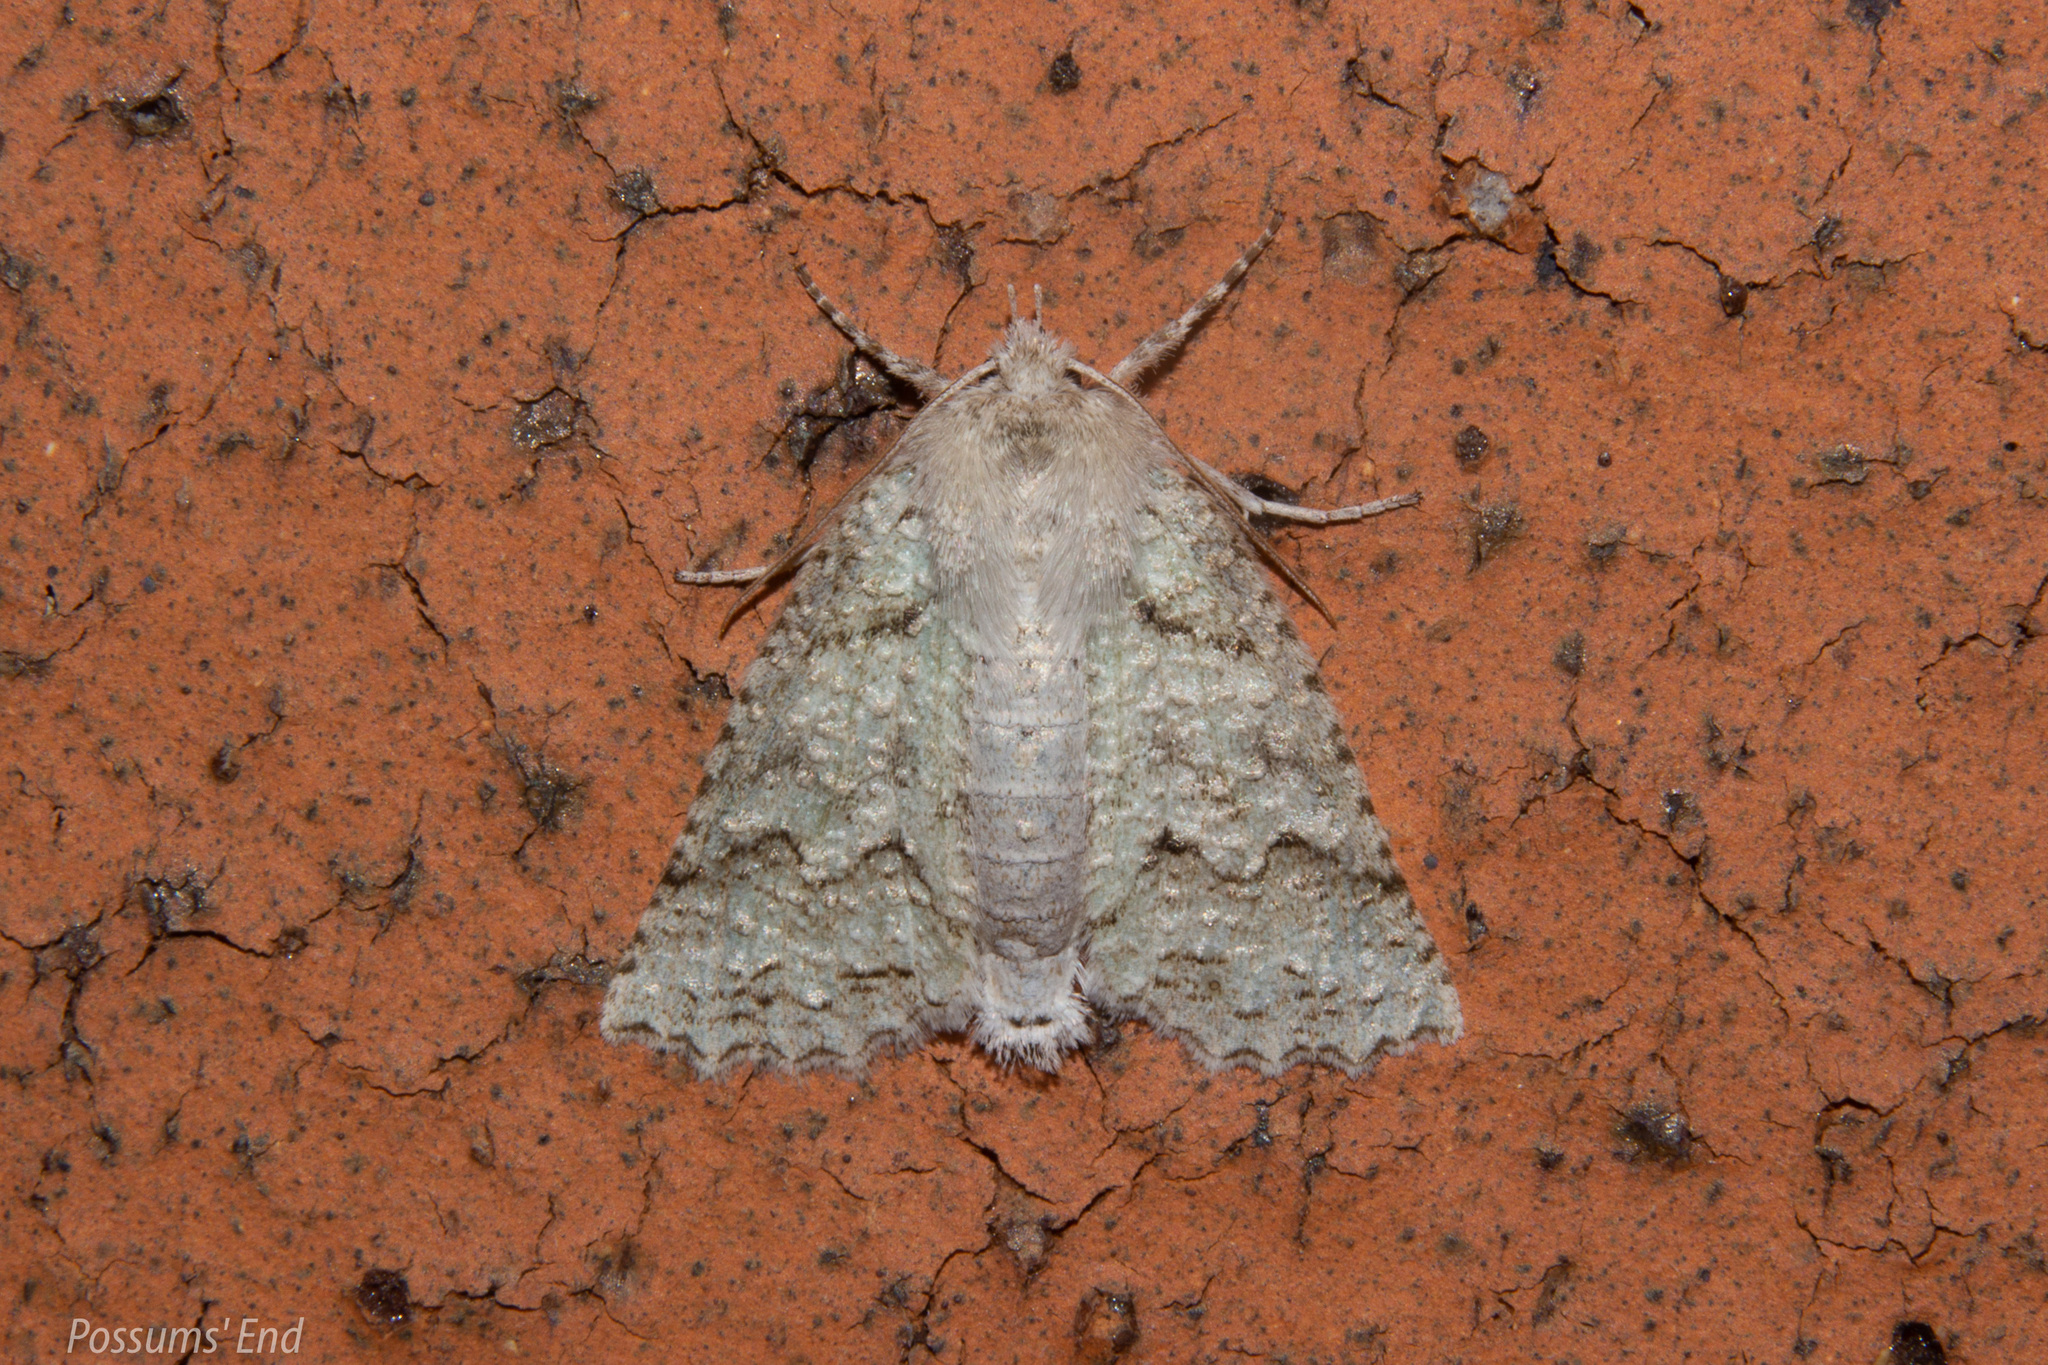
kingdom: Animalia
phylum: Arthropoda
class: Insecta
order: Lepidoptera
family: Geometridae
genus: Declana
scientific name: Declana niveata
